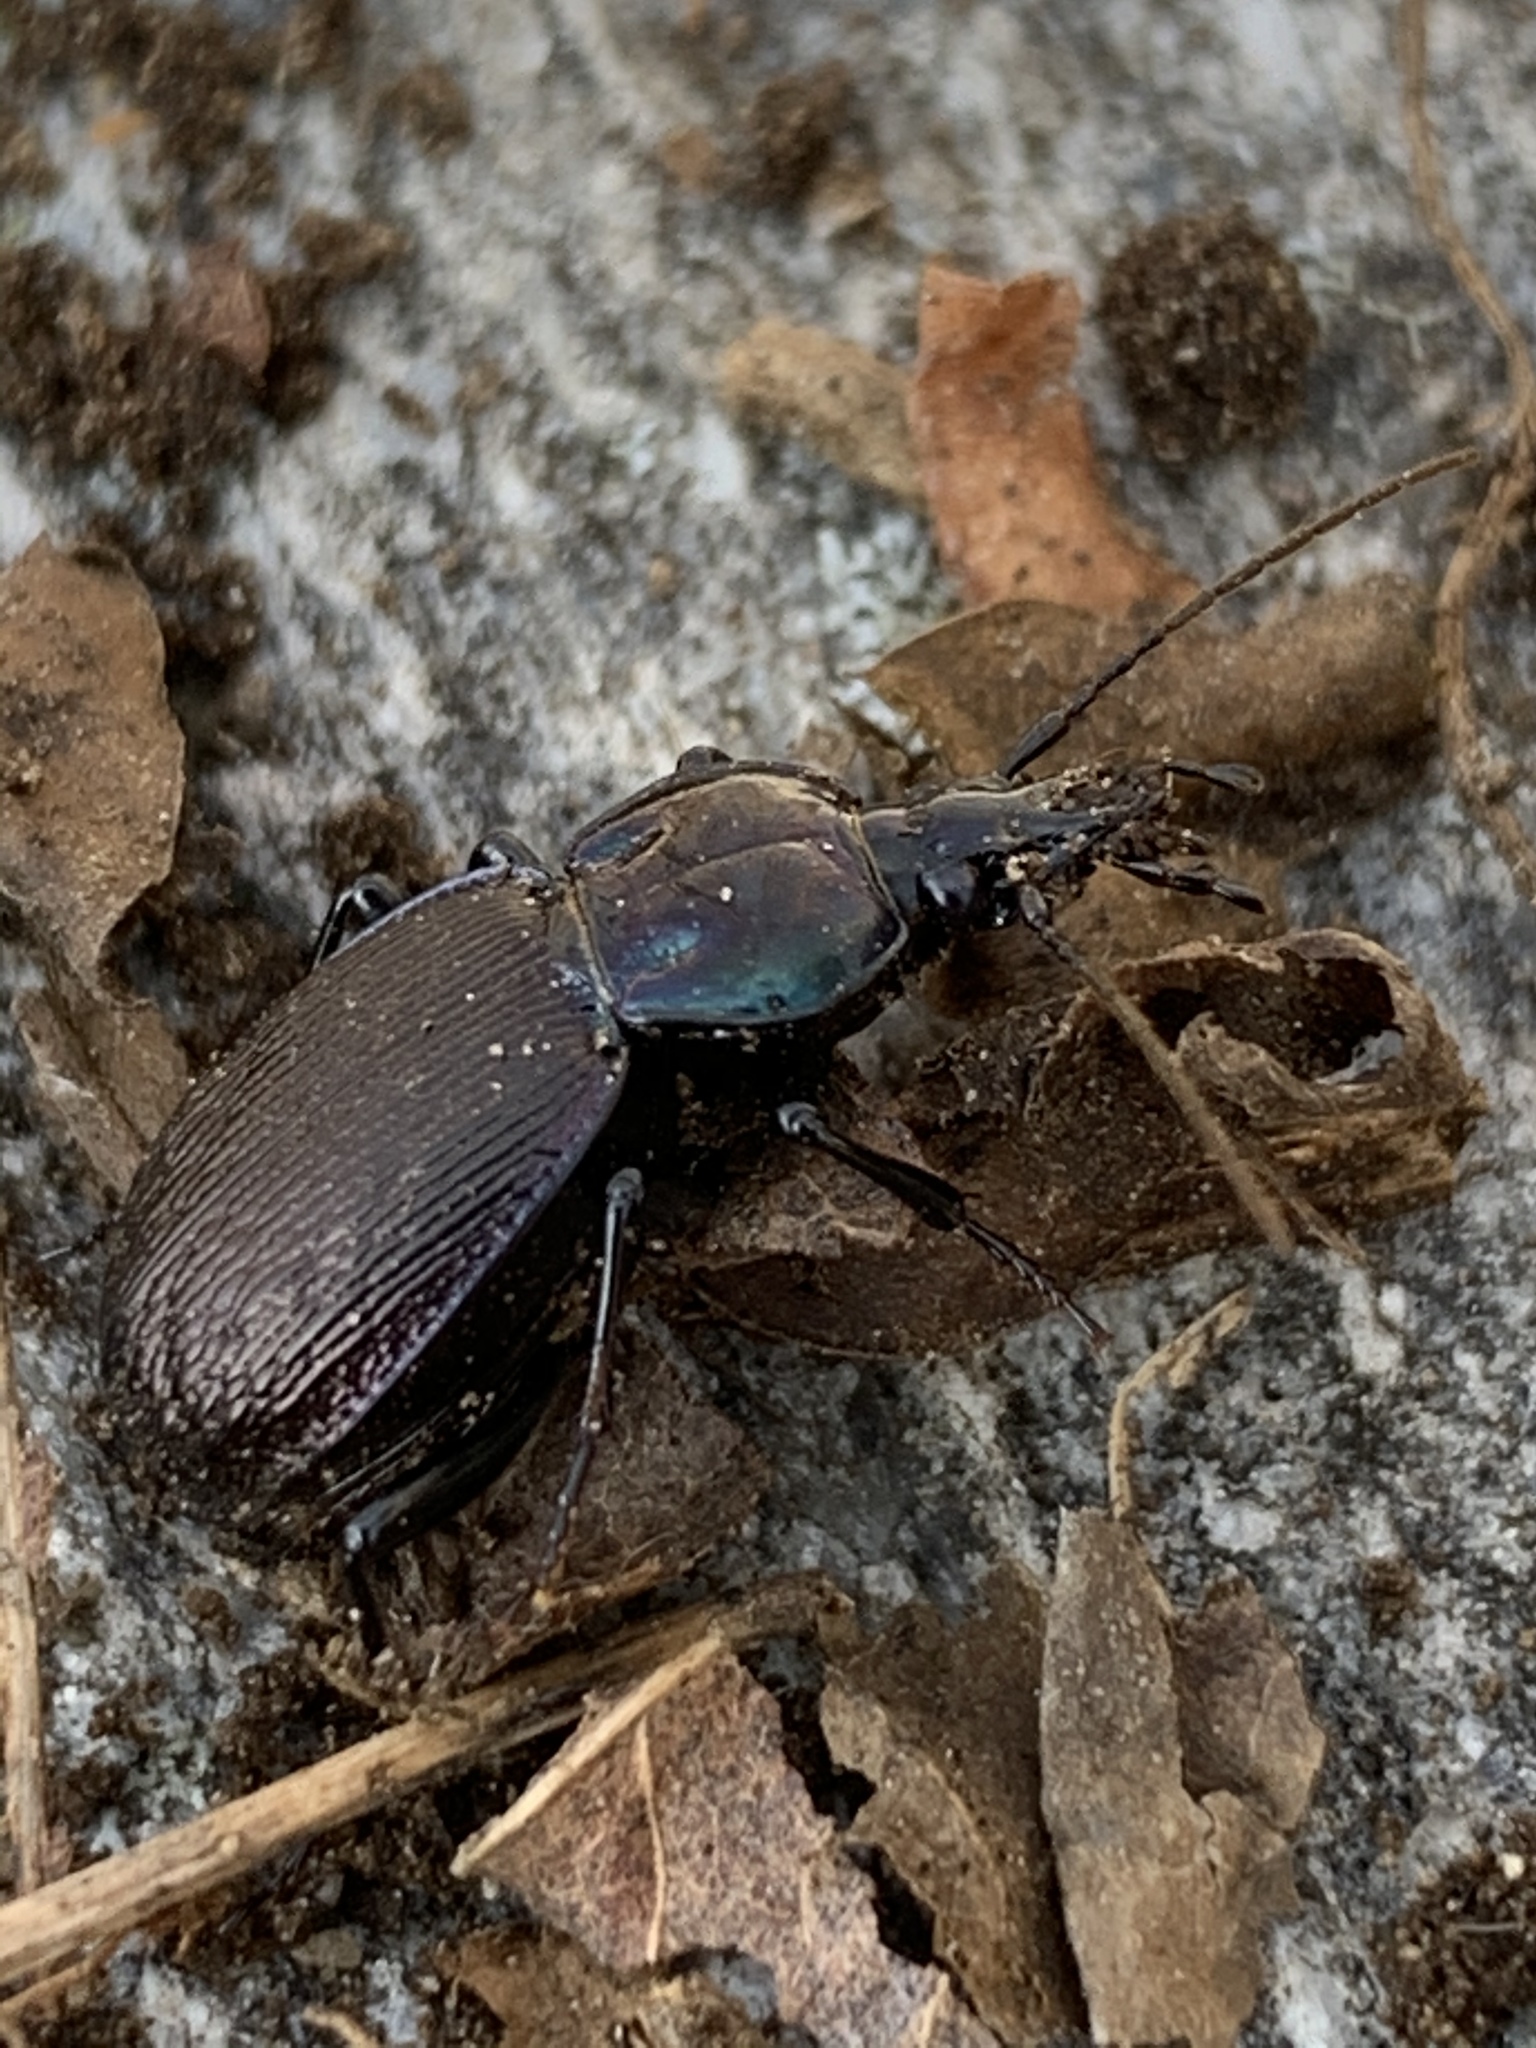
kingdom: Animalia
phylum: Arthropoda
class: Insecta
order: Coleoptera
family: Carabidae
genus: Sphaeroderus
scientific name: Sphaeroderus stenostomus
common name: Small snail-eating ground beetle
